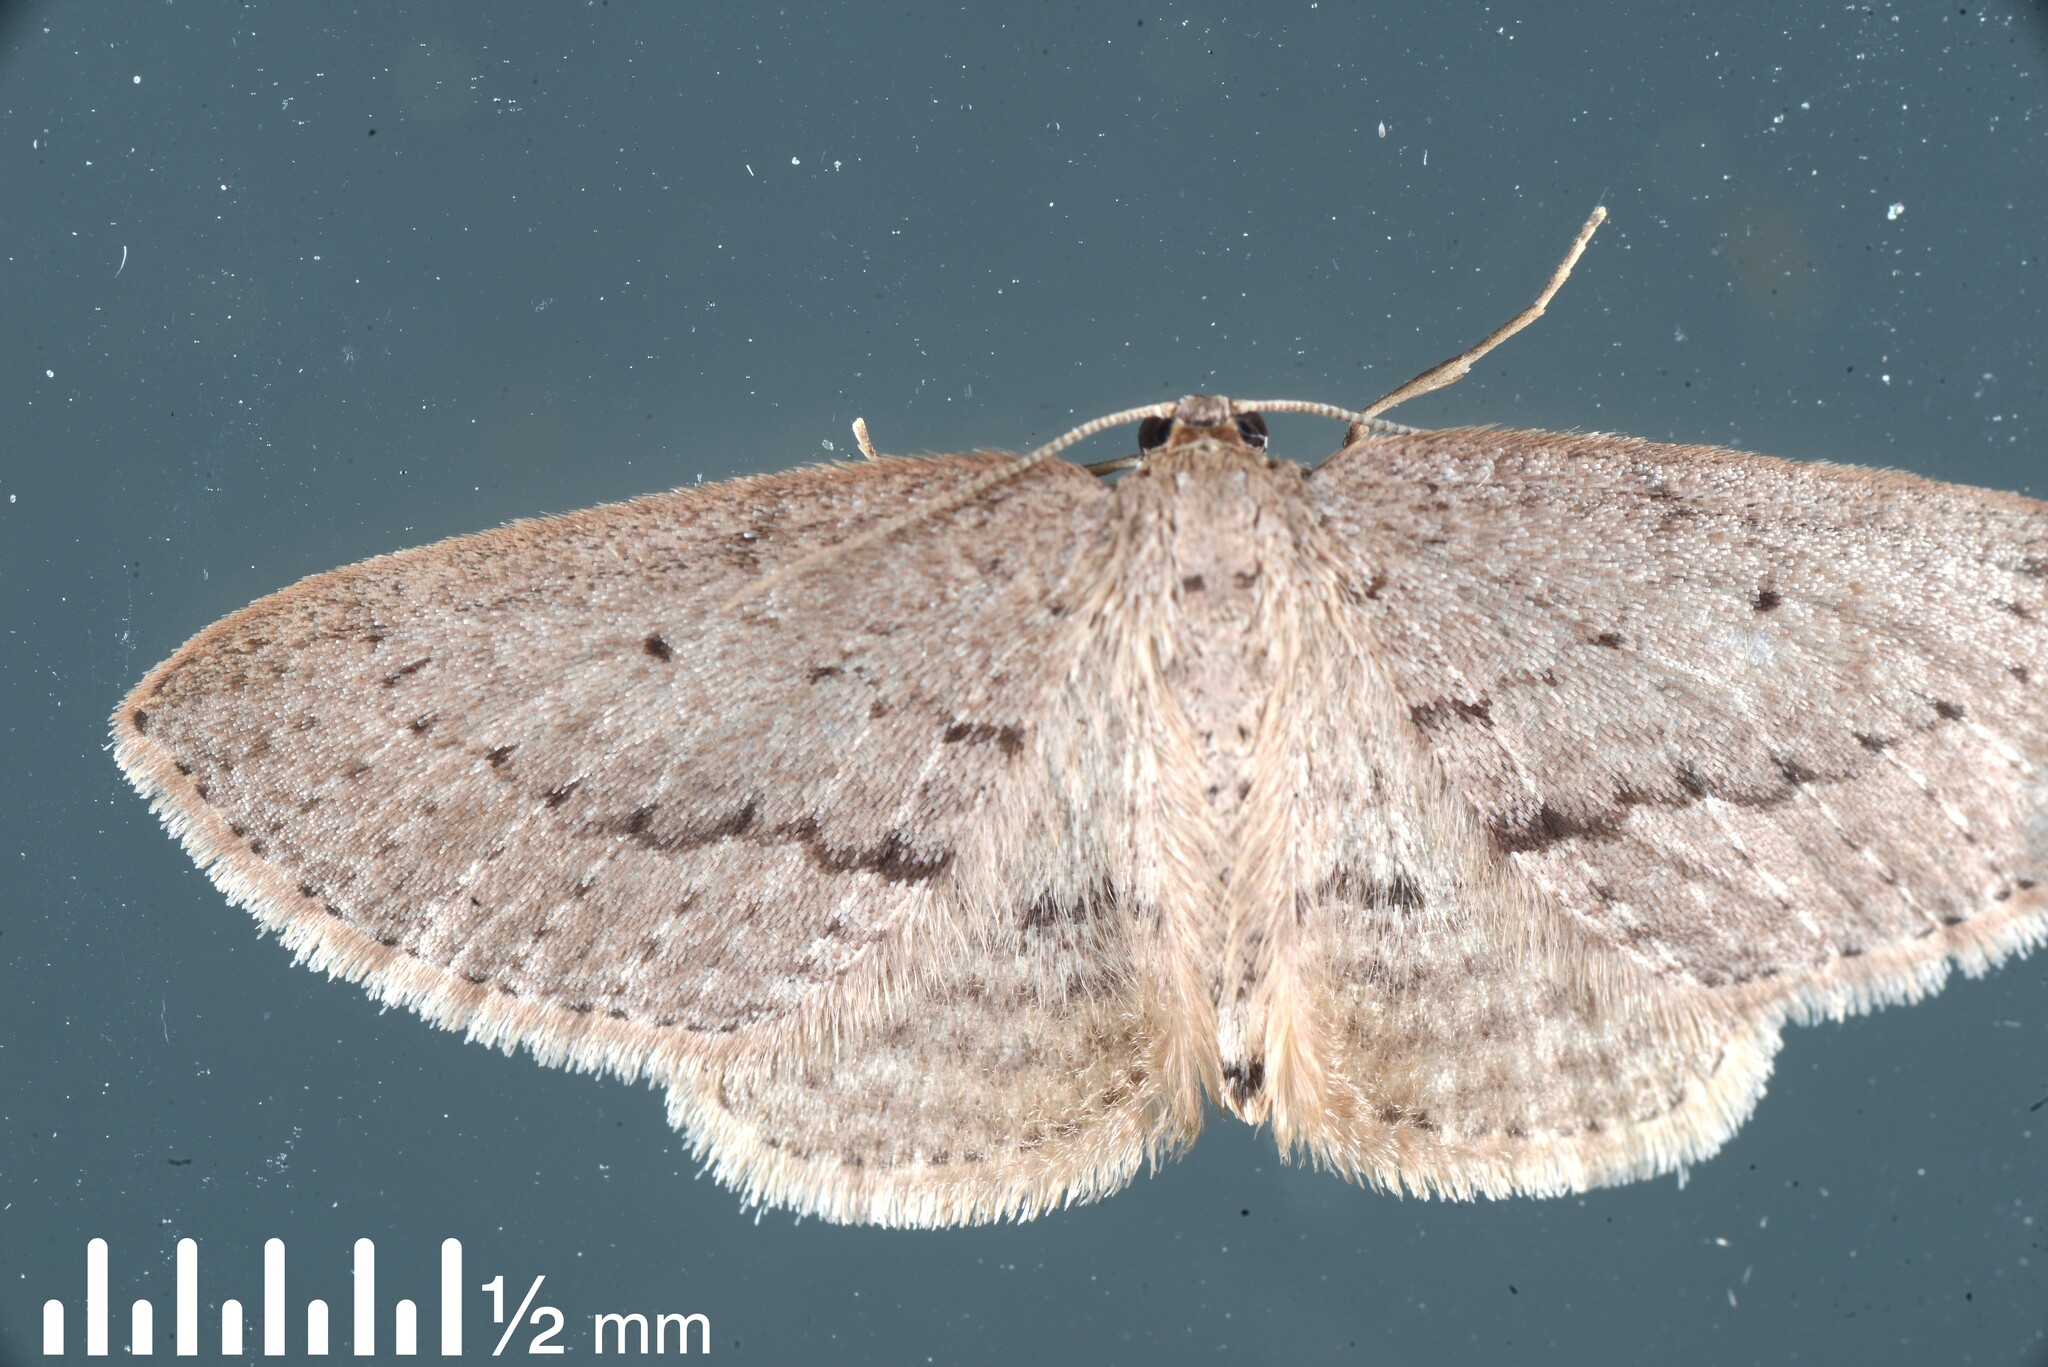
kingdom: Animalia
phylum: Arthropoda
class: Insecta
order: Lepidoptera
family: Geometridae
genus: Poecilasthena
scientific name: Poecilasthena schistaria
